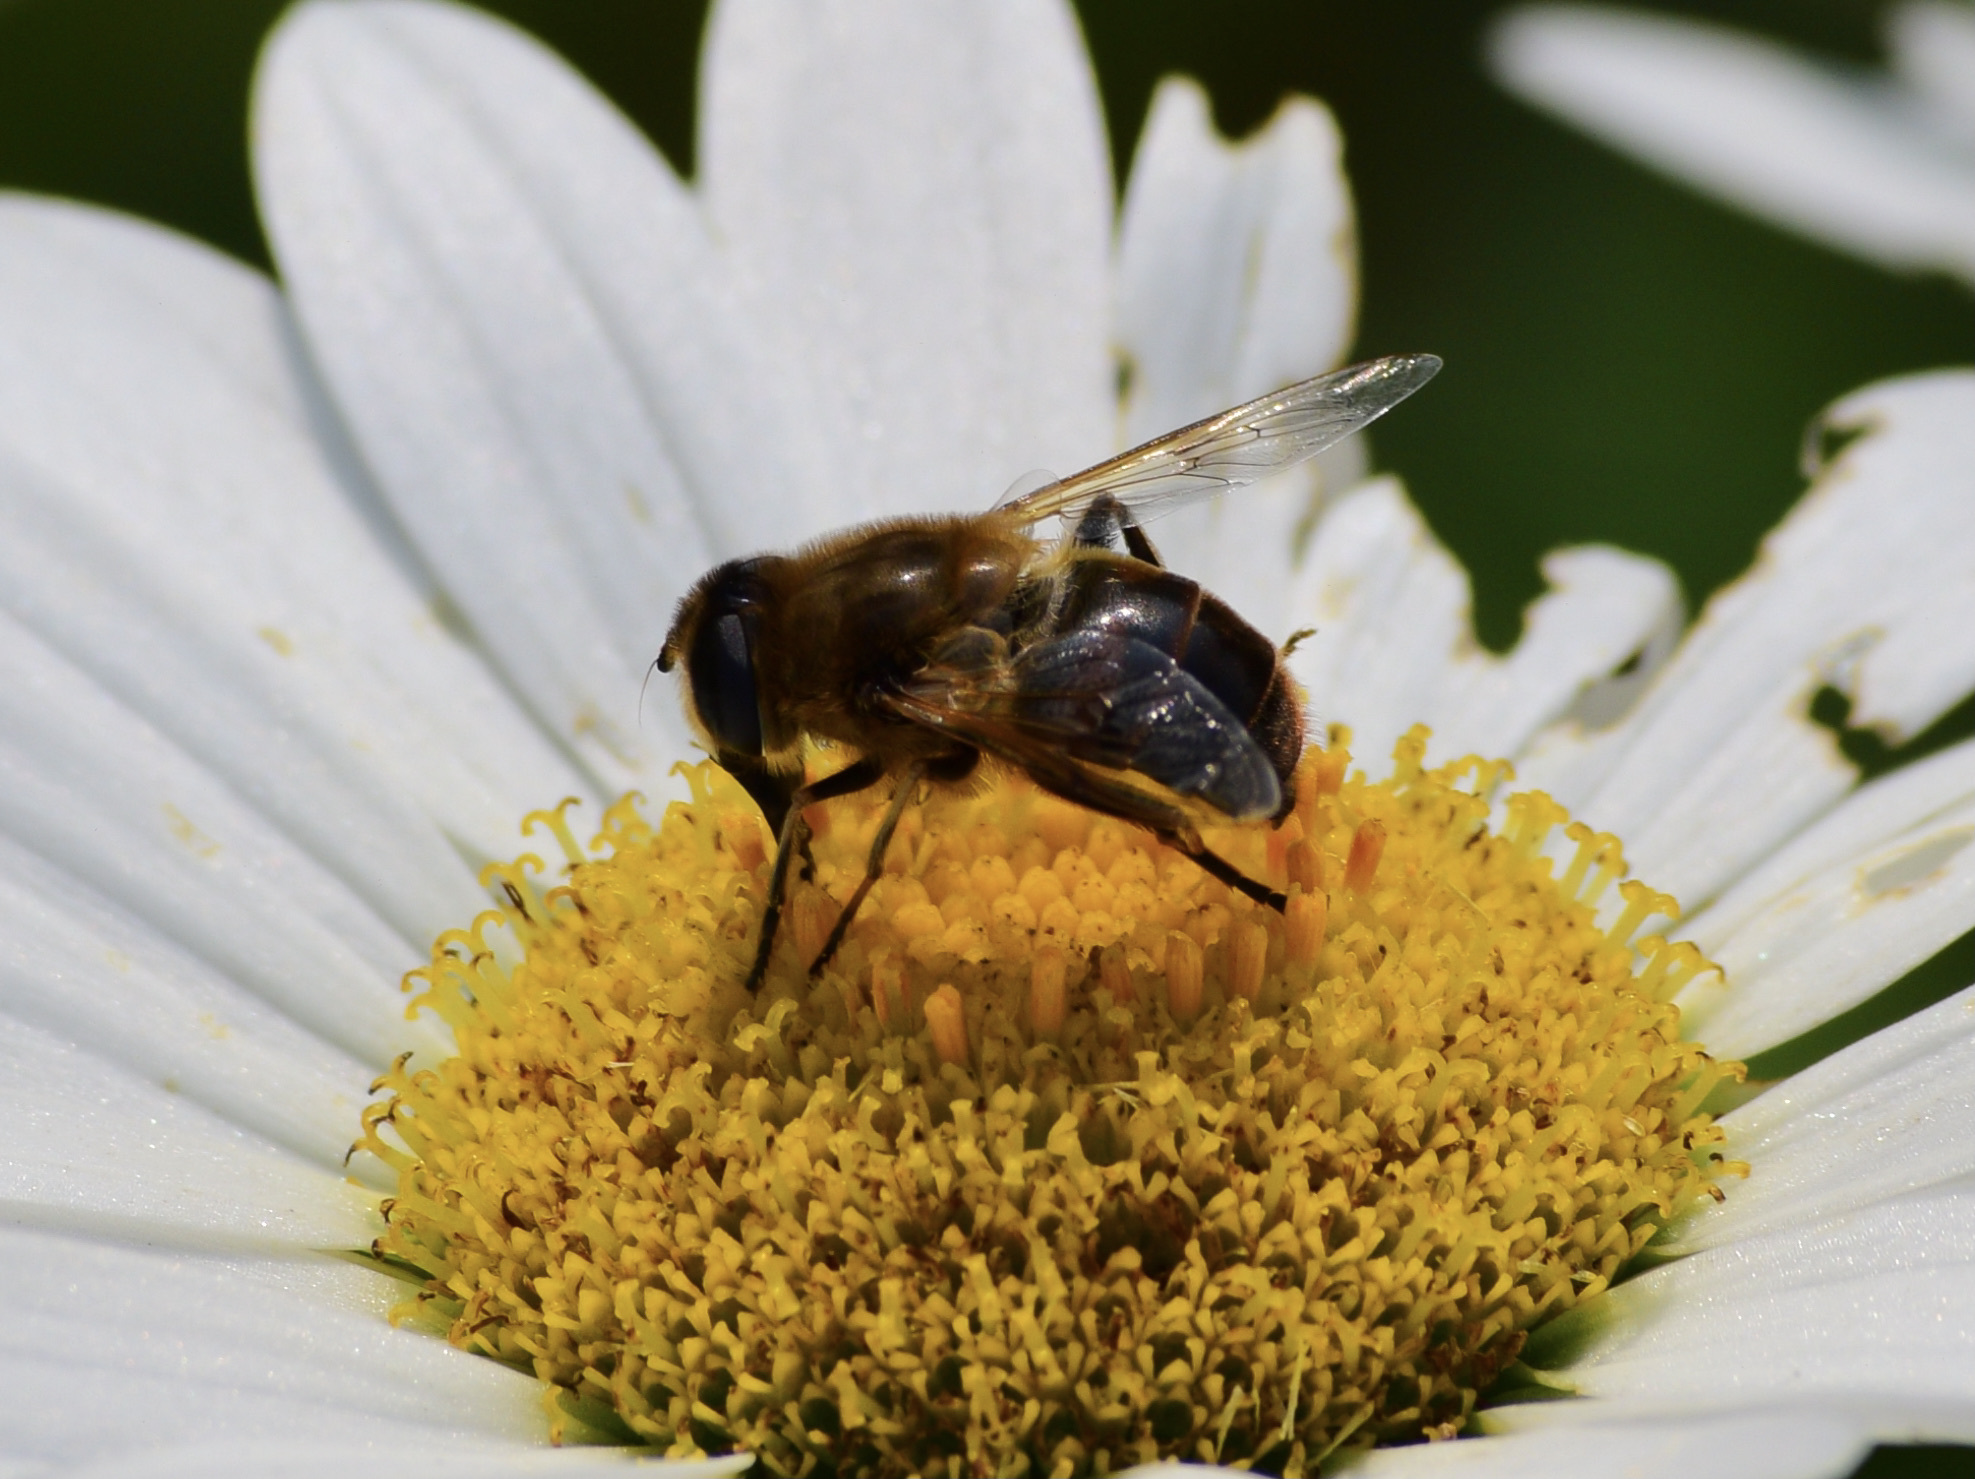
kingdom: Animalia
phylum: Arthropoda
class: Insecta
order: Diptera
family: Syrphidae
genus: Eristalis
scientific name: Eristalis tenax
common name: Drone fly
